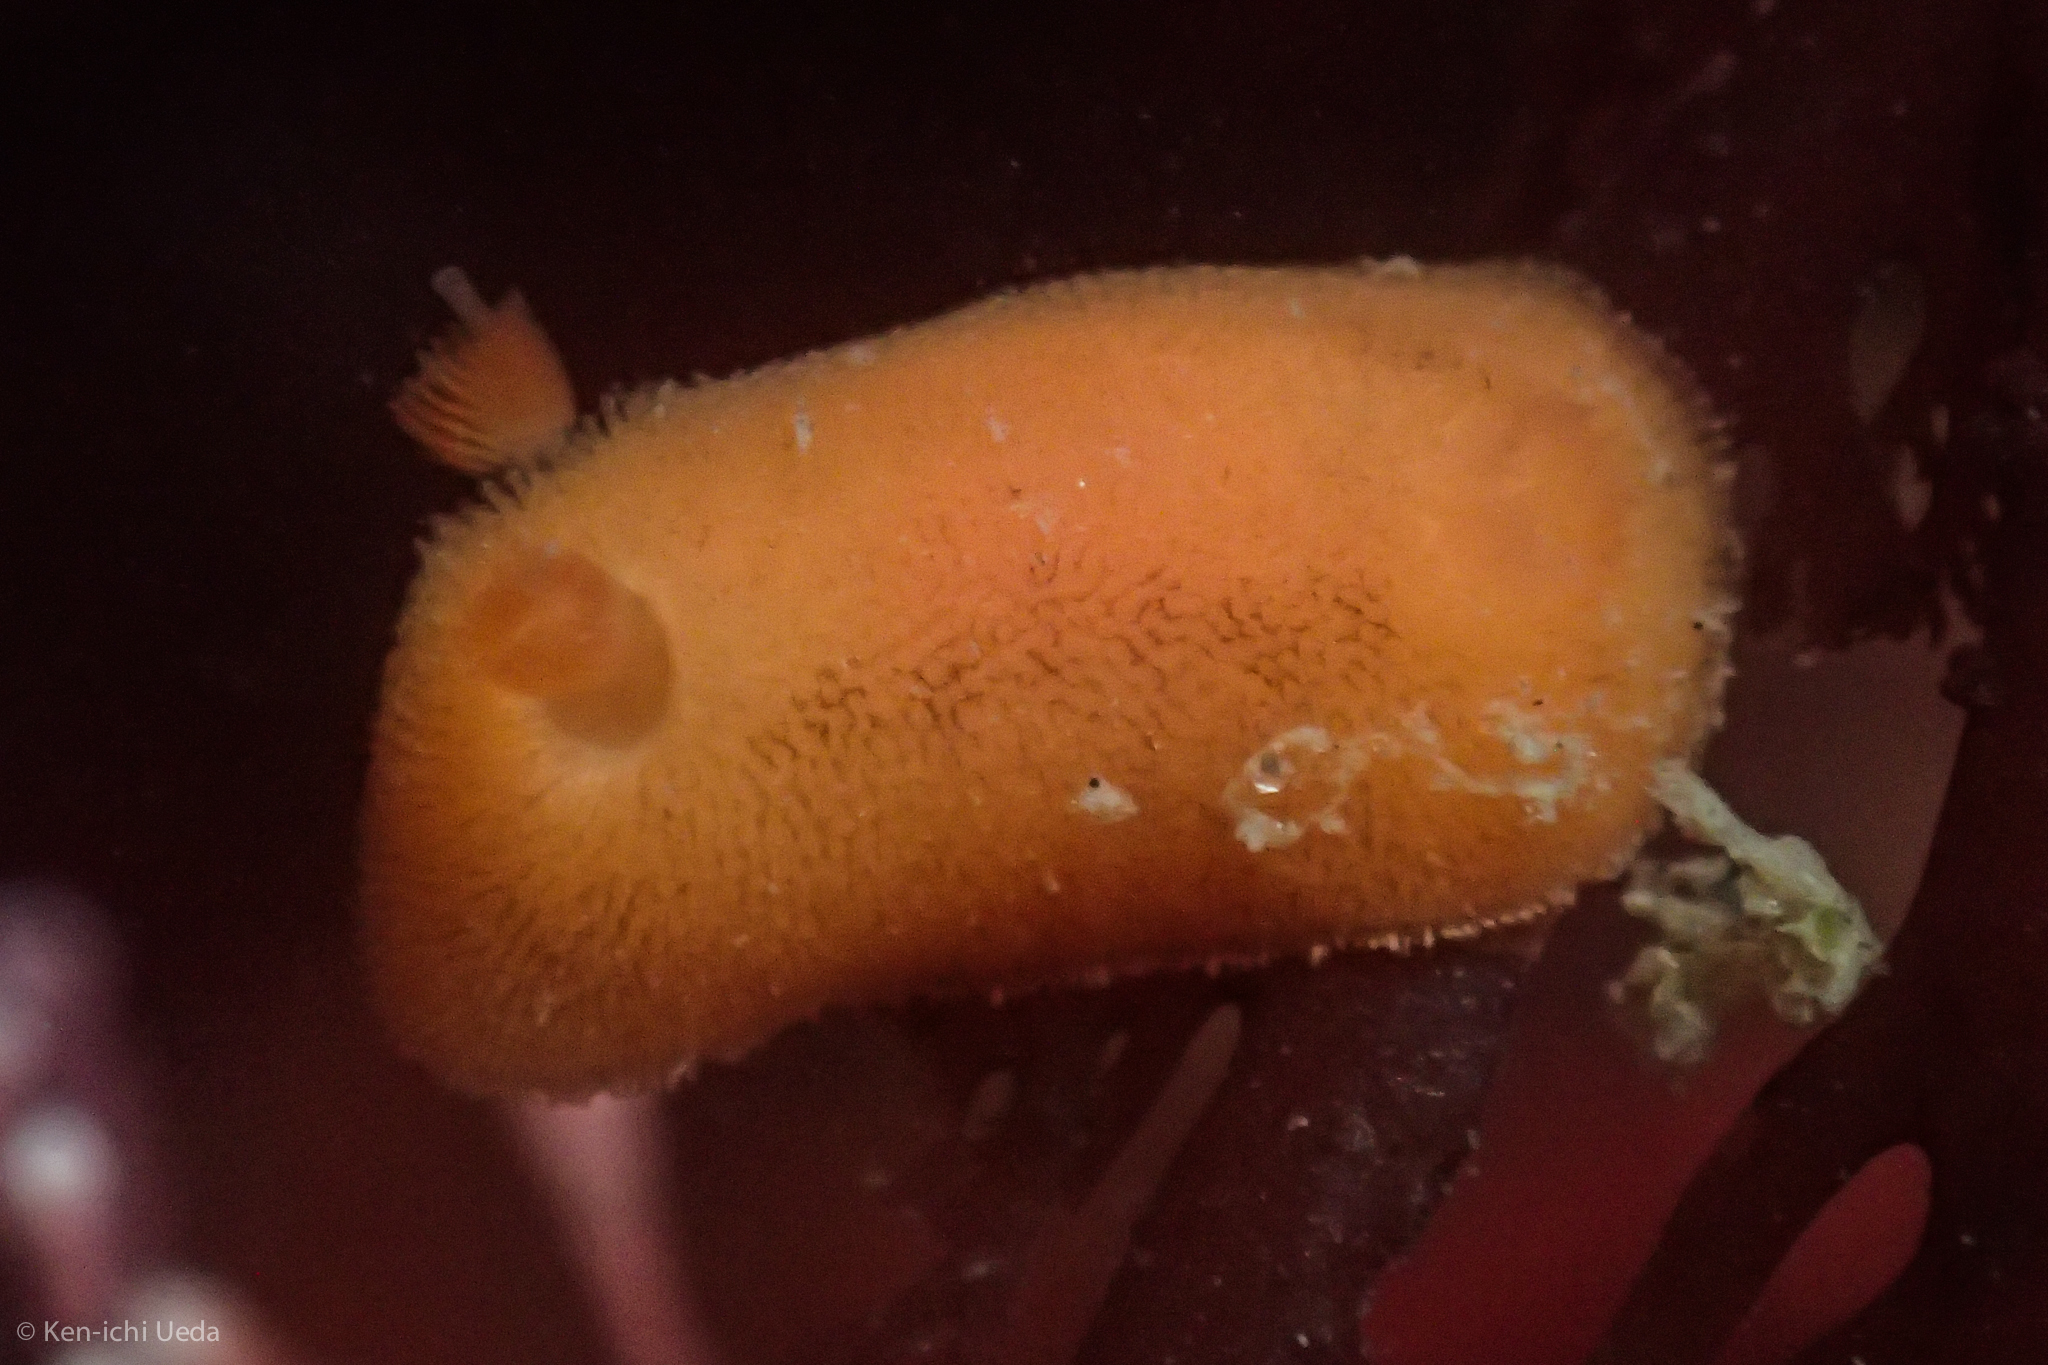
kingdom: Animalia
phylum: Mollusca
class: Gastropoda
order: Nudibranchia
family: Discodorididae
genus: Rostanga
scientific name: Rostanga pulchra
